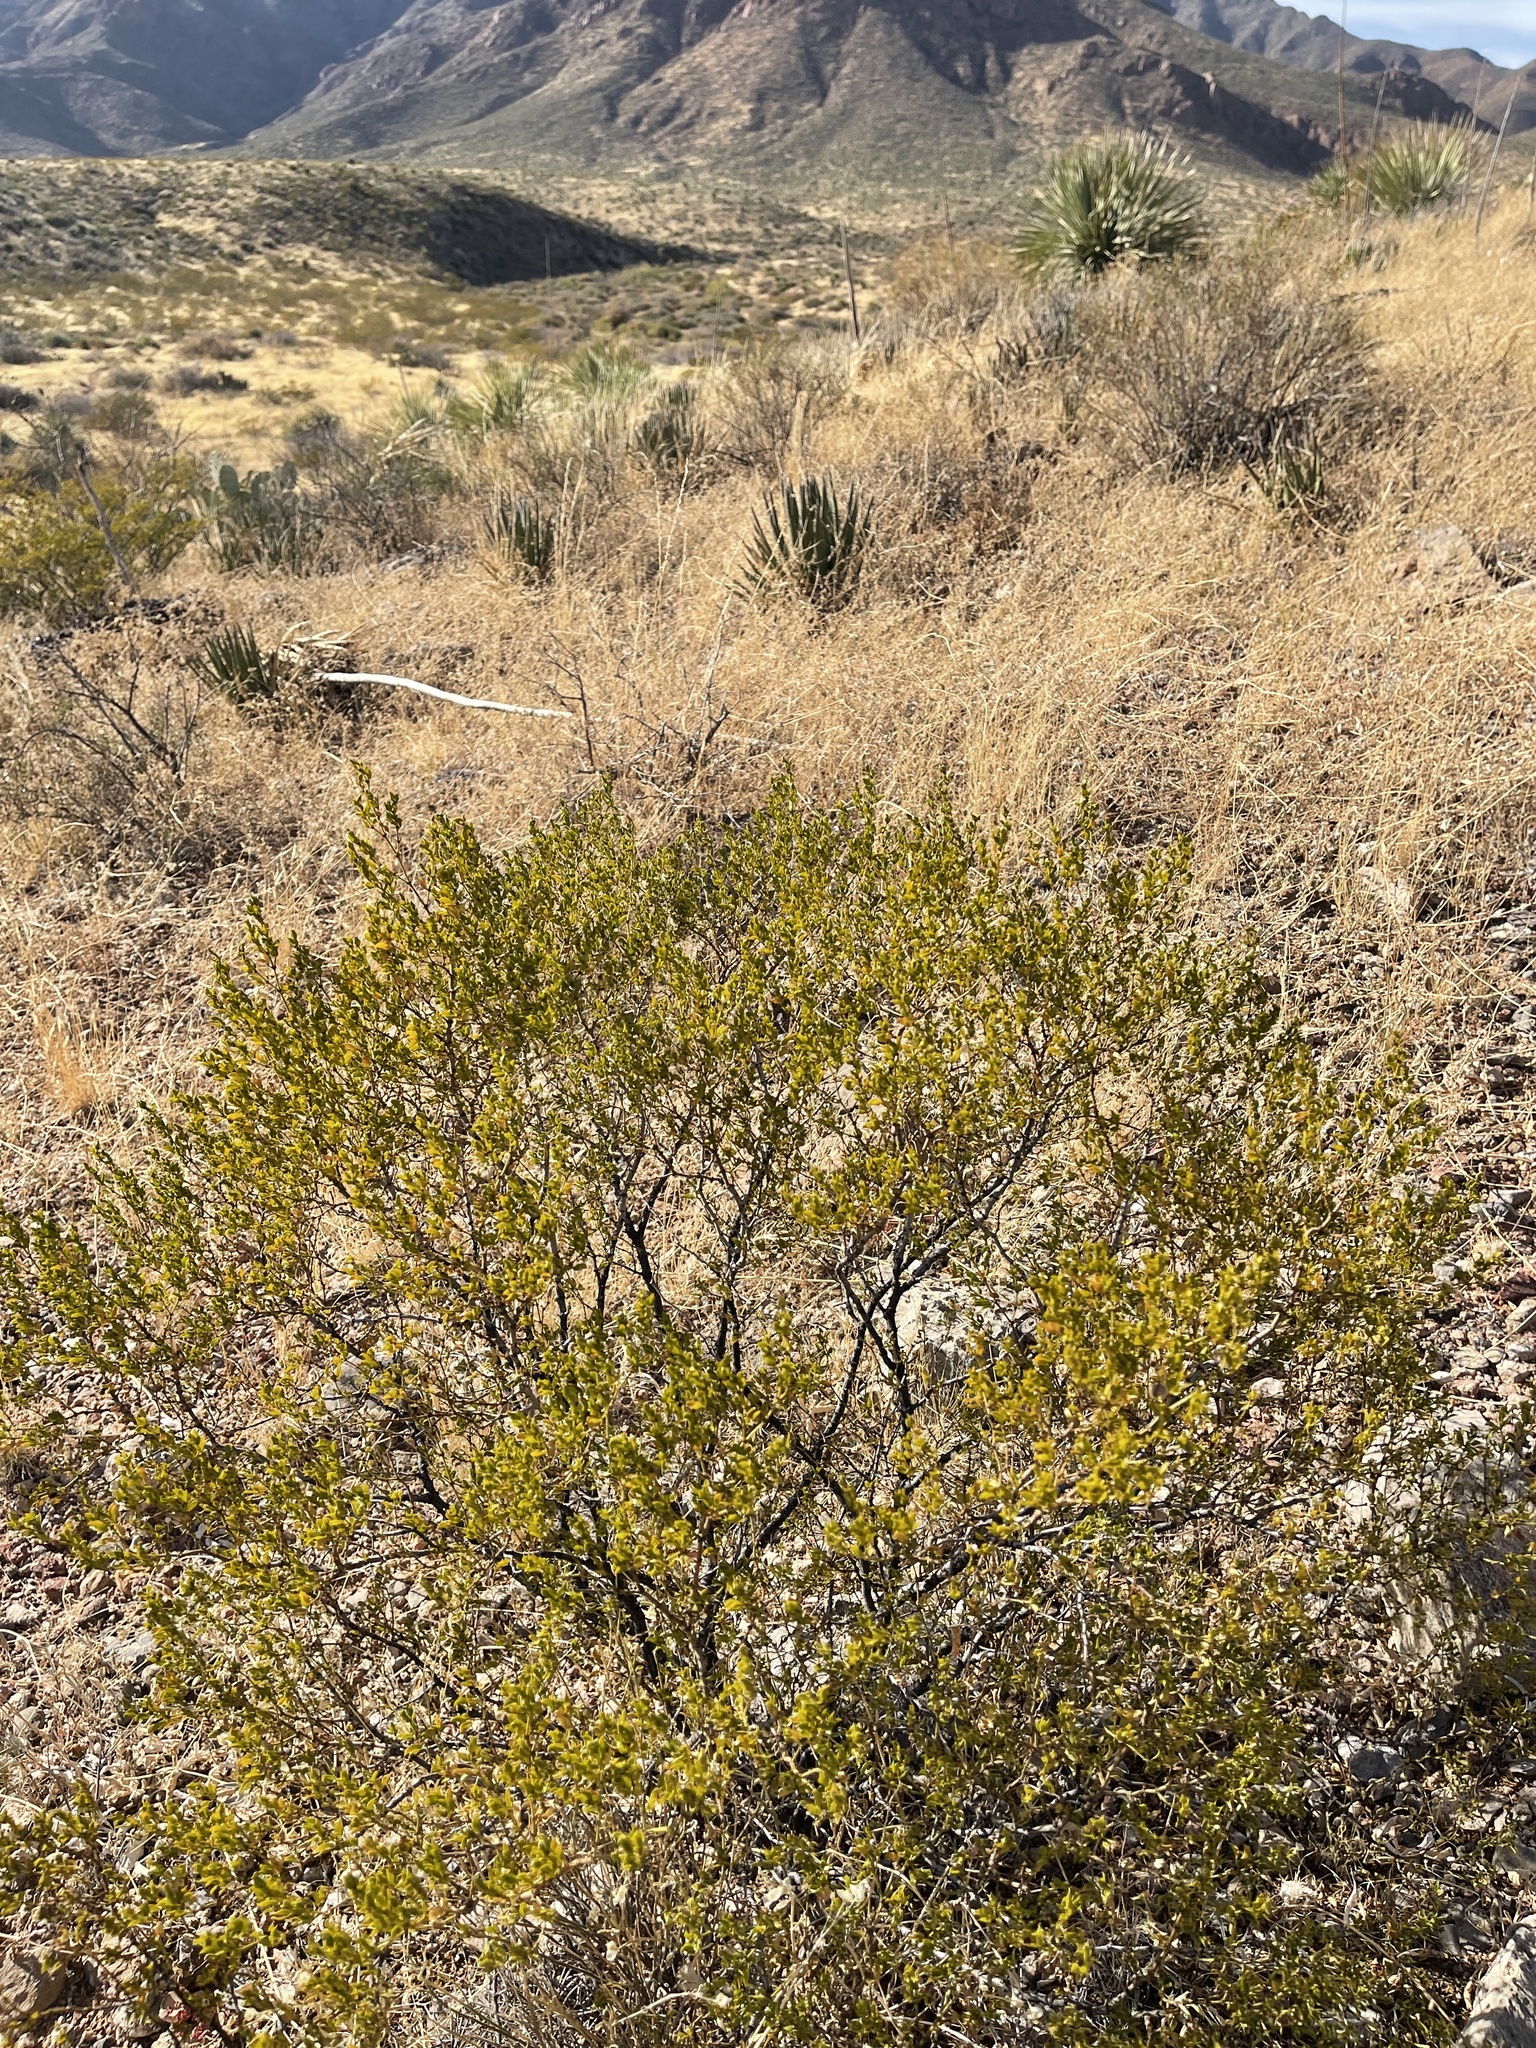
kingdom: Plantae
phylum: Tracheophyta
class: Magnoliopsida
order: Zygophyllales
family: Zygophyllaceae
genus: Larrea
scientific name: Larrea tridentata
